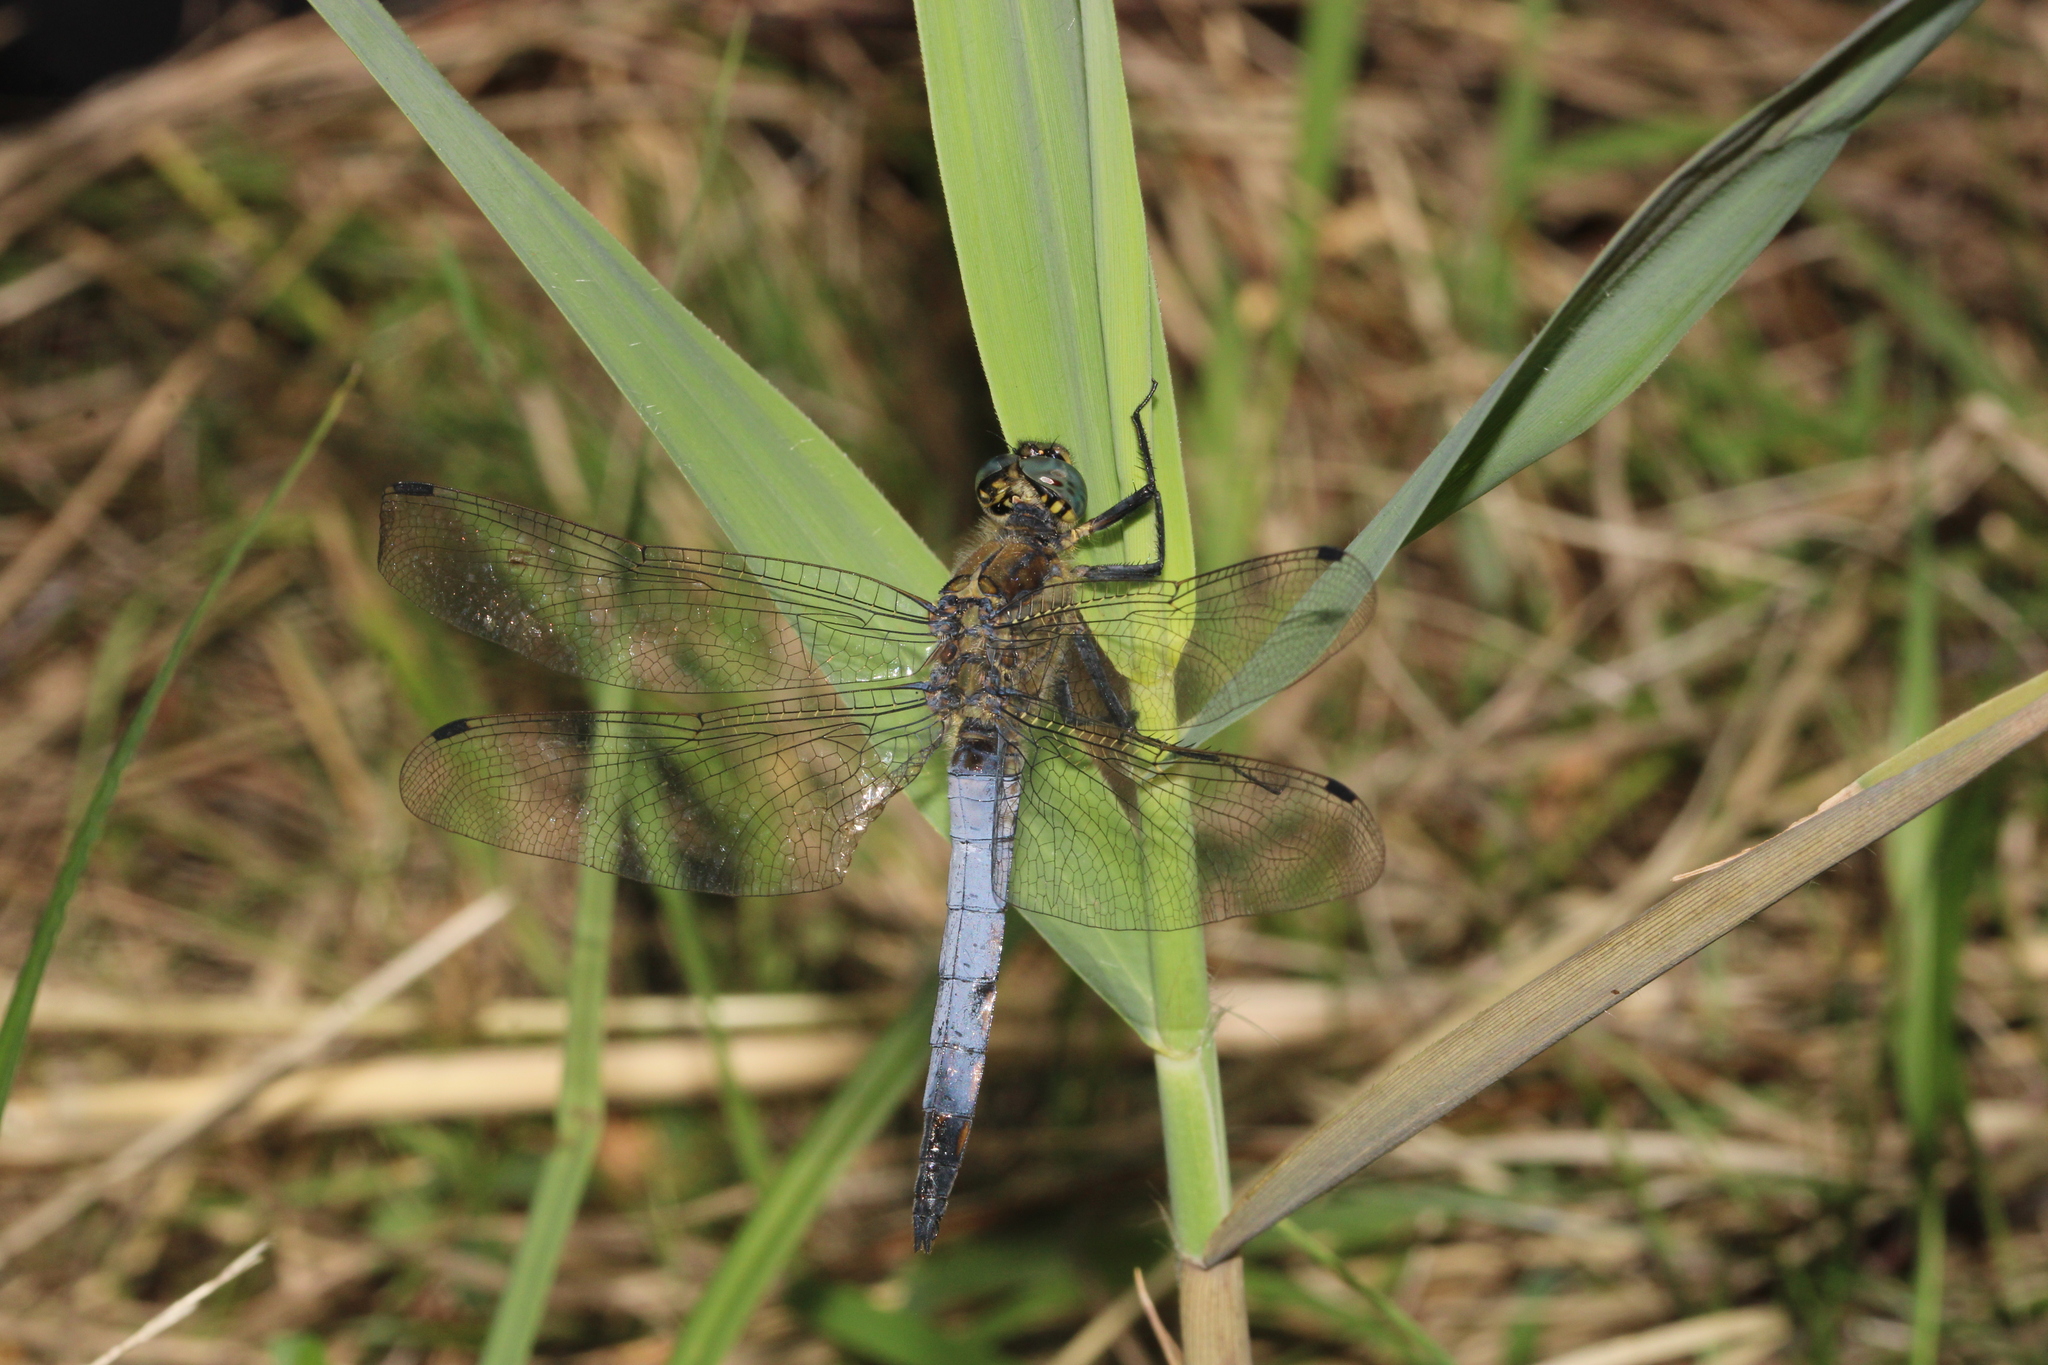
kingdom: Animalia
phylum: Arthropoda
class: Insecta
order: Odonata
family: Libellulidae
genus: Orthetrum
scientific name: Orthetrum cancellatum
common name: Black-tailed skimmer
